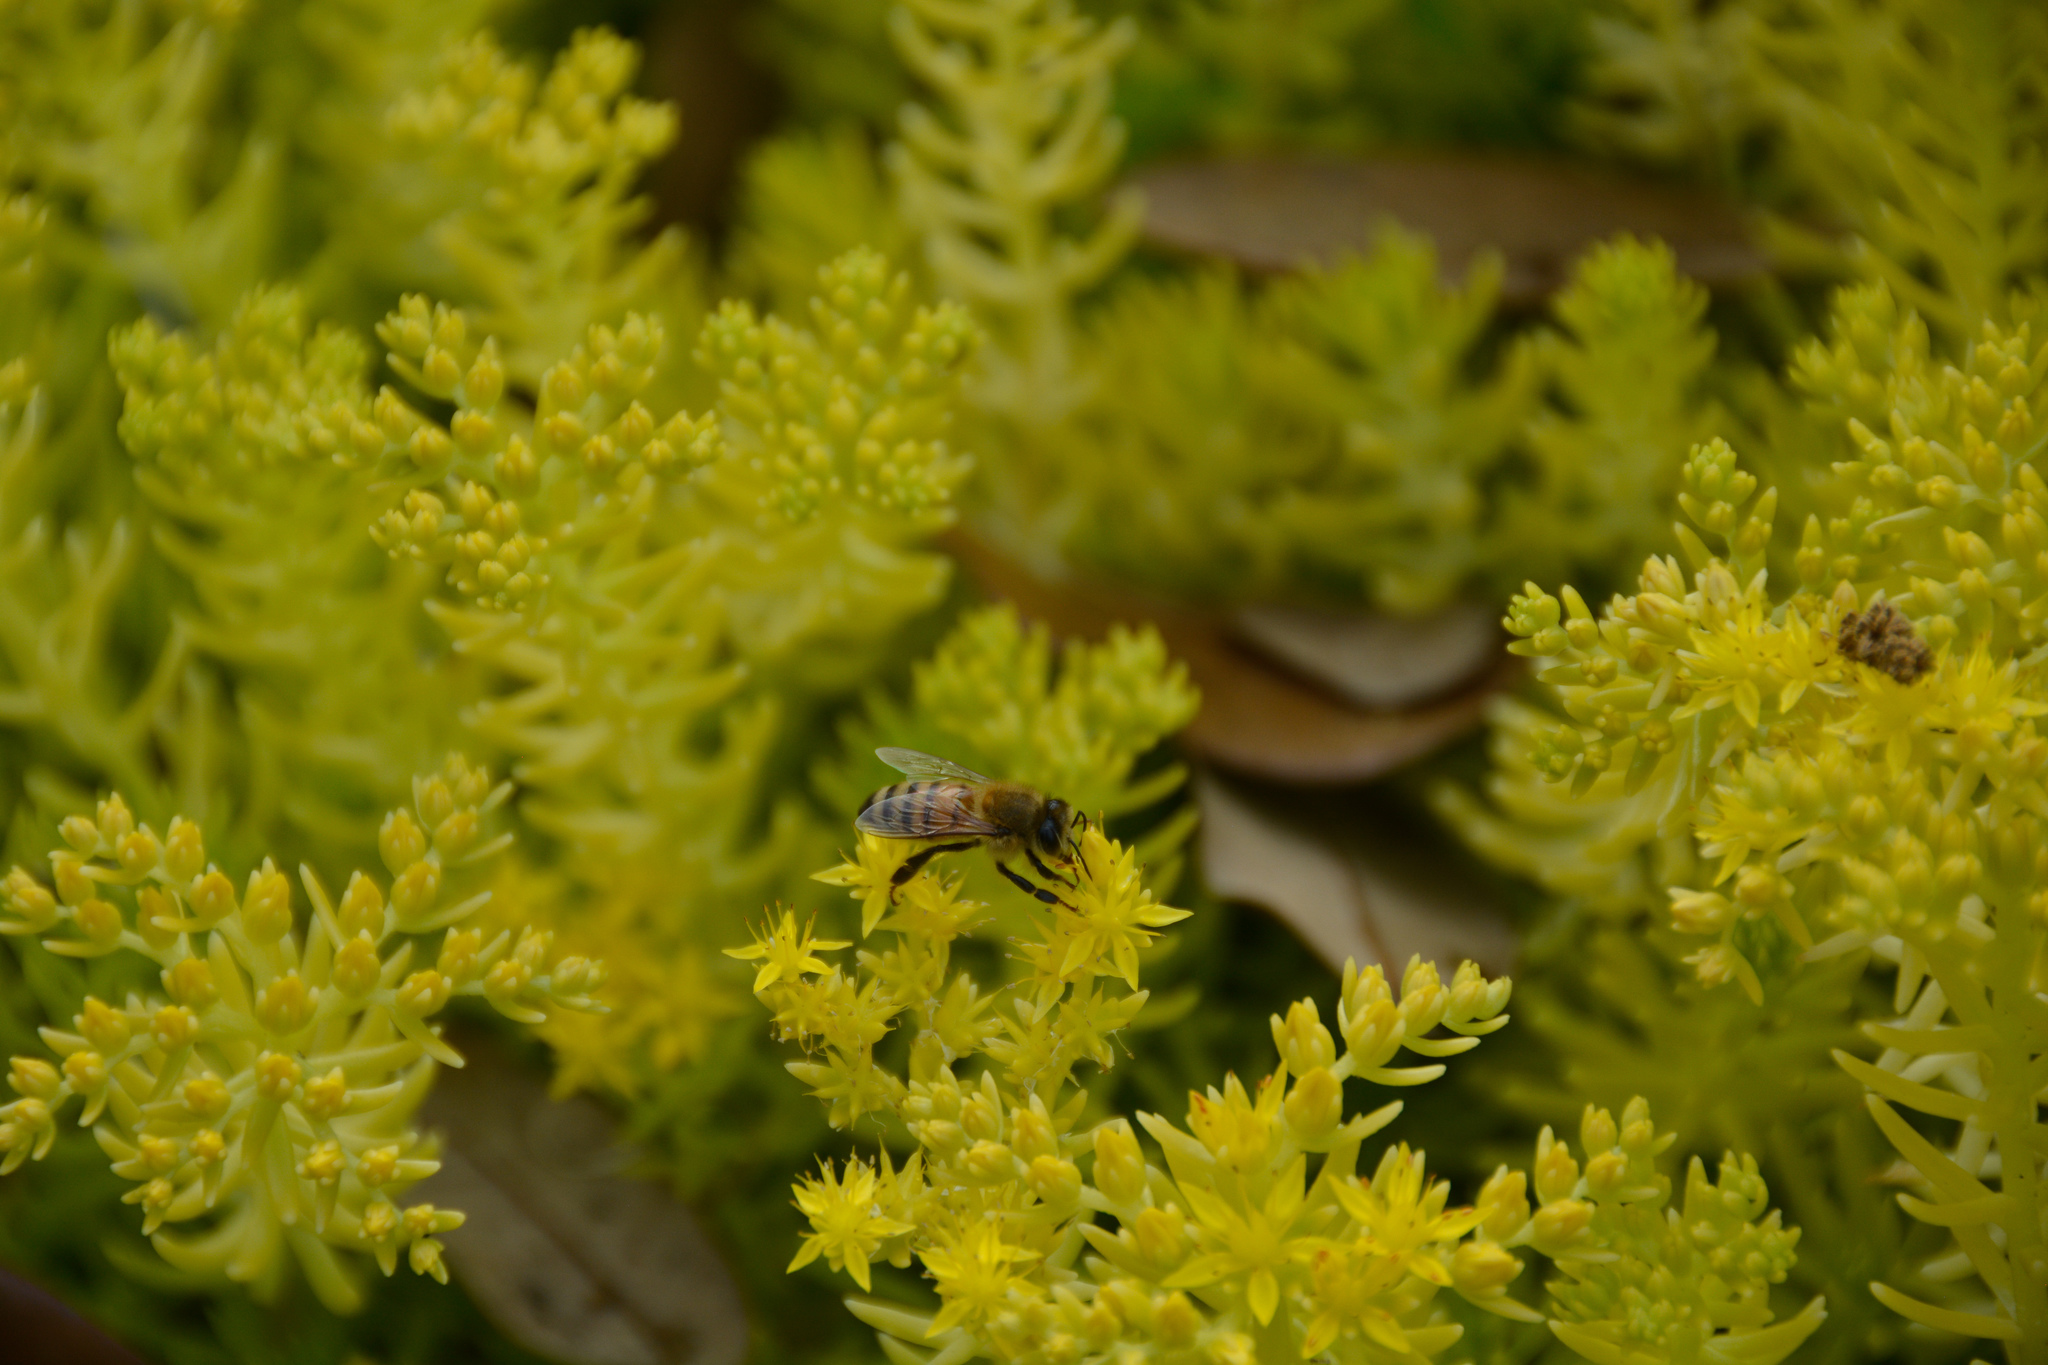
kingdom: Animalia
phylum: Arthropoda
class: Insecta
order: Hymenoptera
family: Apidae
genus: Apis
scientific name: Apis mellifera
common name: Honey bee
